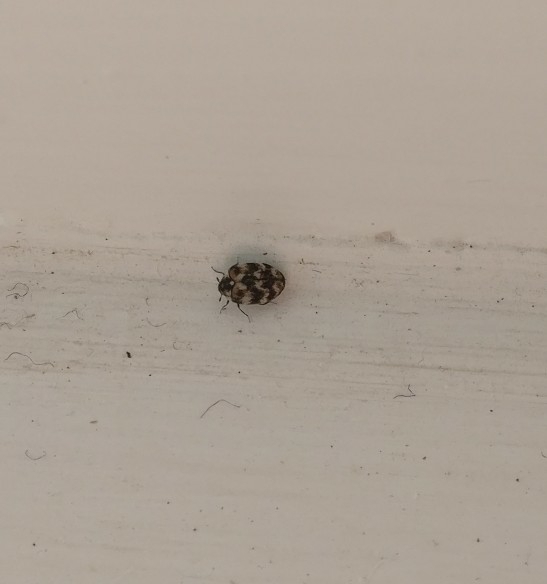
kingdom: Animalia
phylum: Arthropoda
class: Insecta
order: Coleoptera
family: Dermestidae
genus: Anthrenus
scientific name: Anthrenus verbasci
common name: Varied carpet beetle
